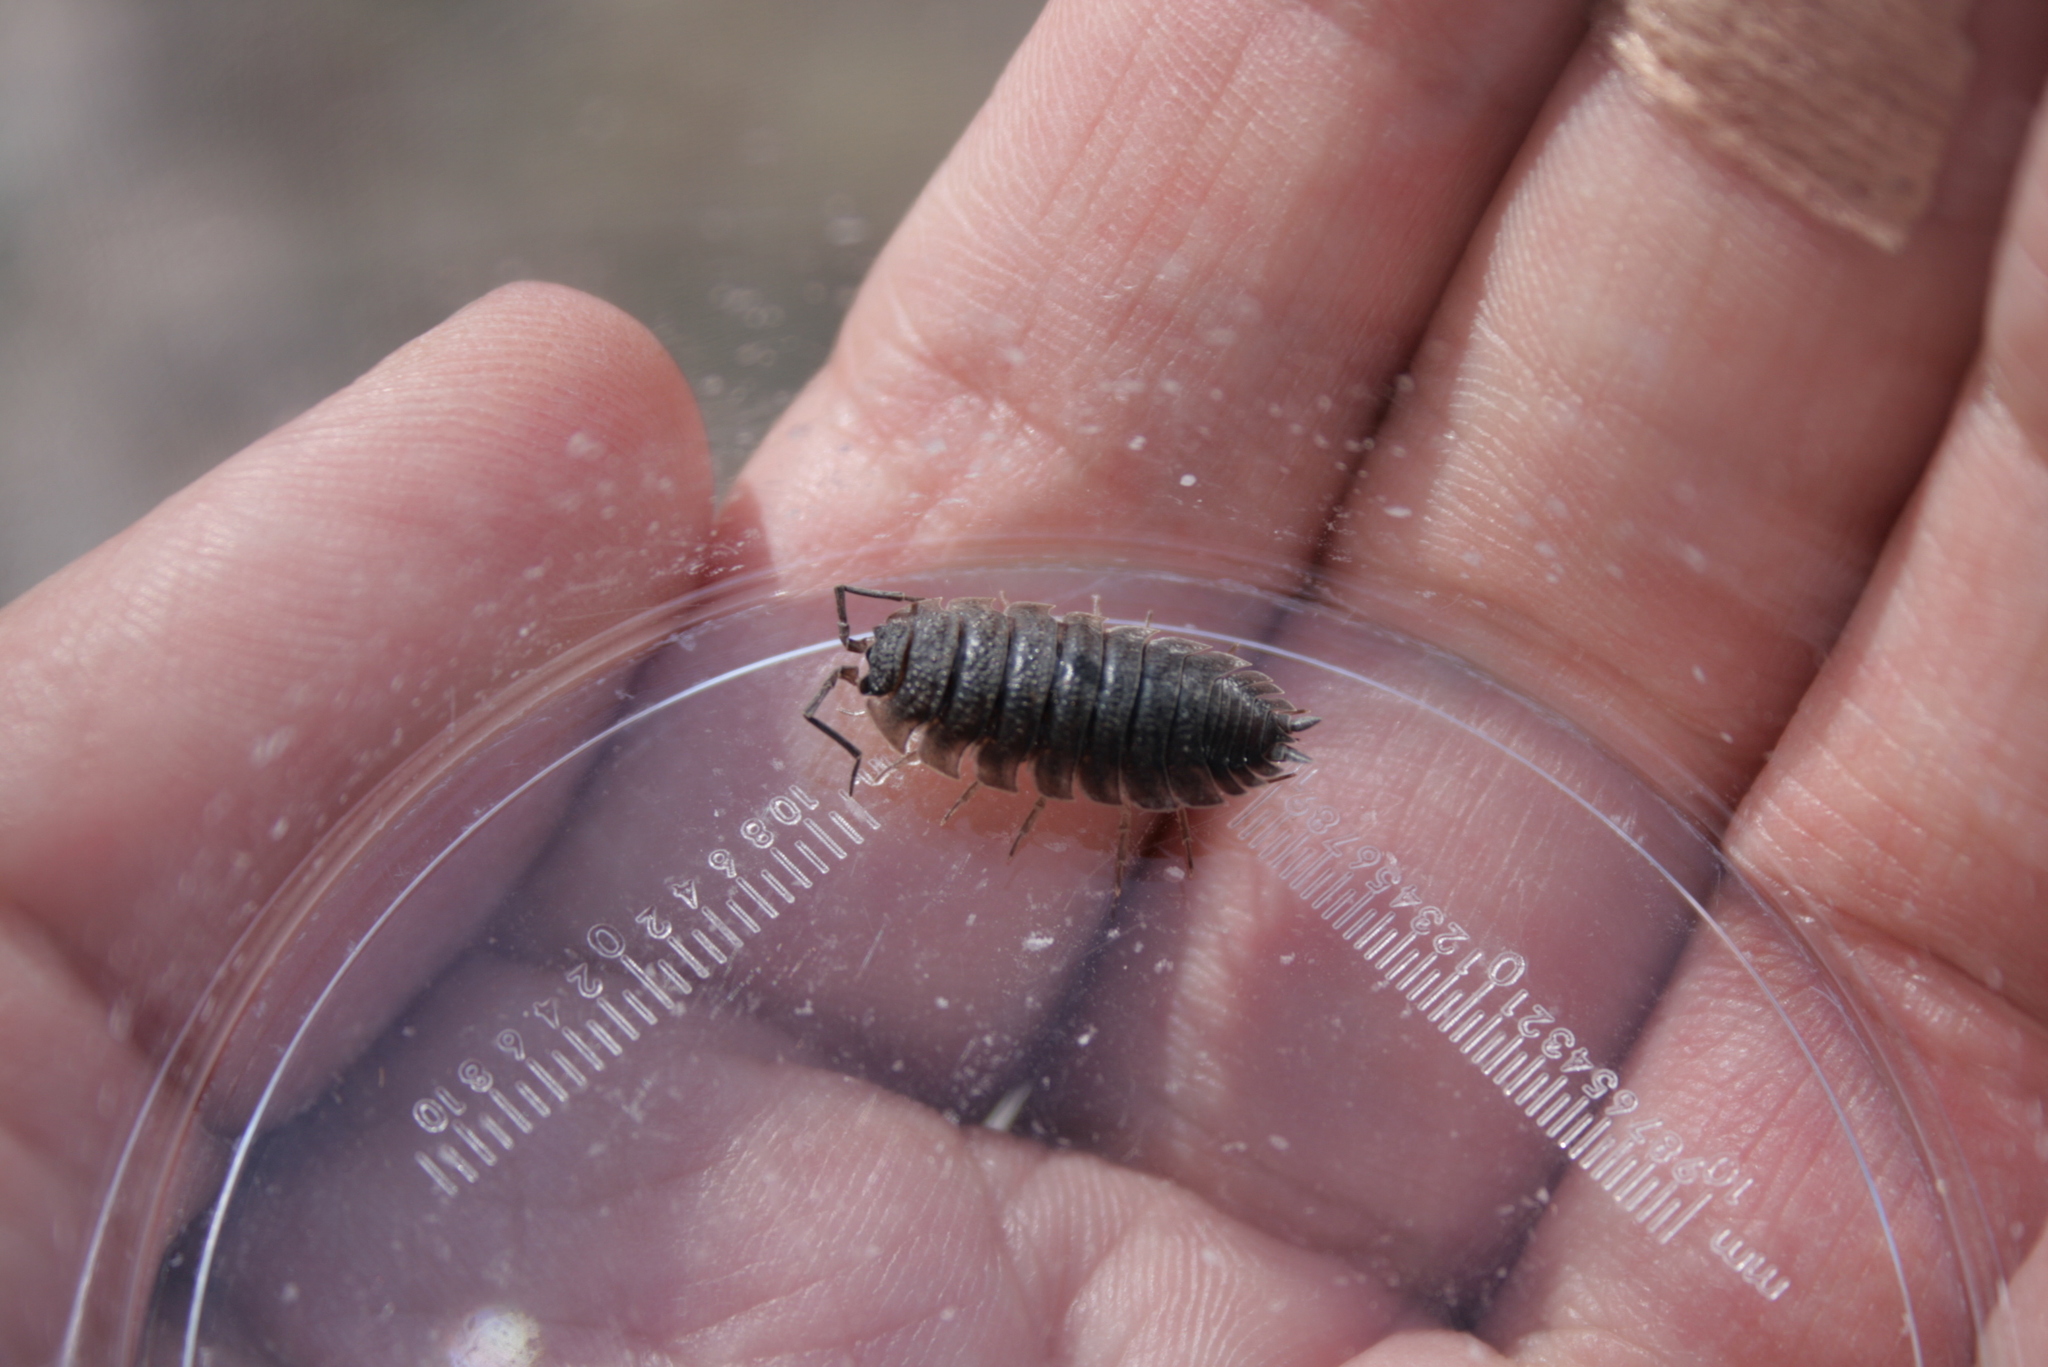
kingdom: Animalia
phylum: Arthropoda
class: Malacostraca
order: Isopoda
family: Porcellionidae
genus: Porcellio
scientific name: Porcellio scaber
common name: Common rough woodlouse
